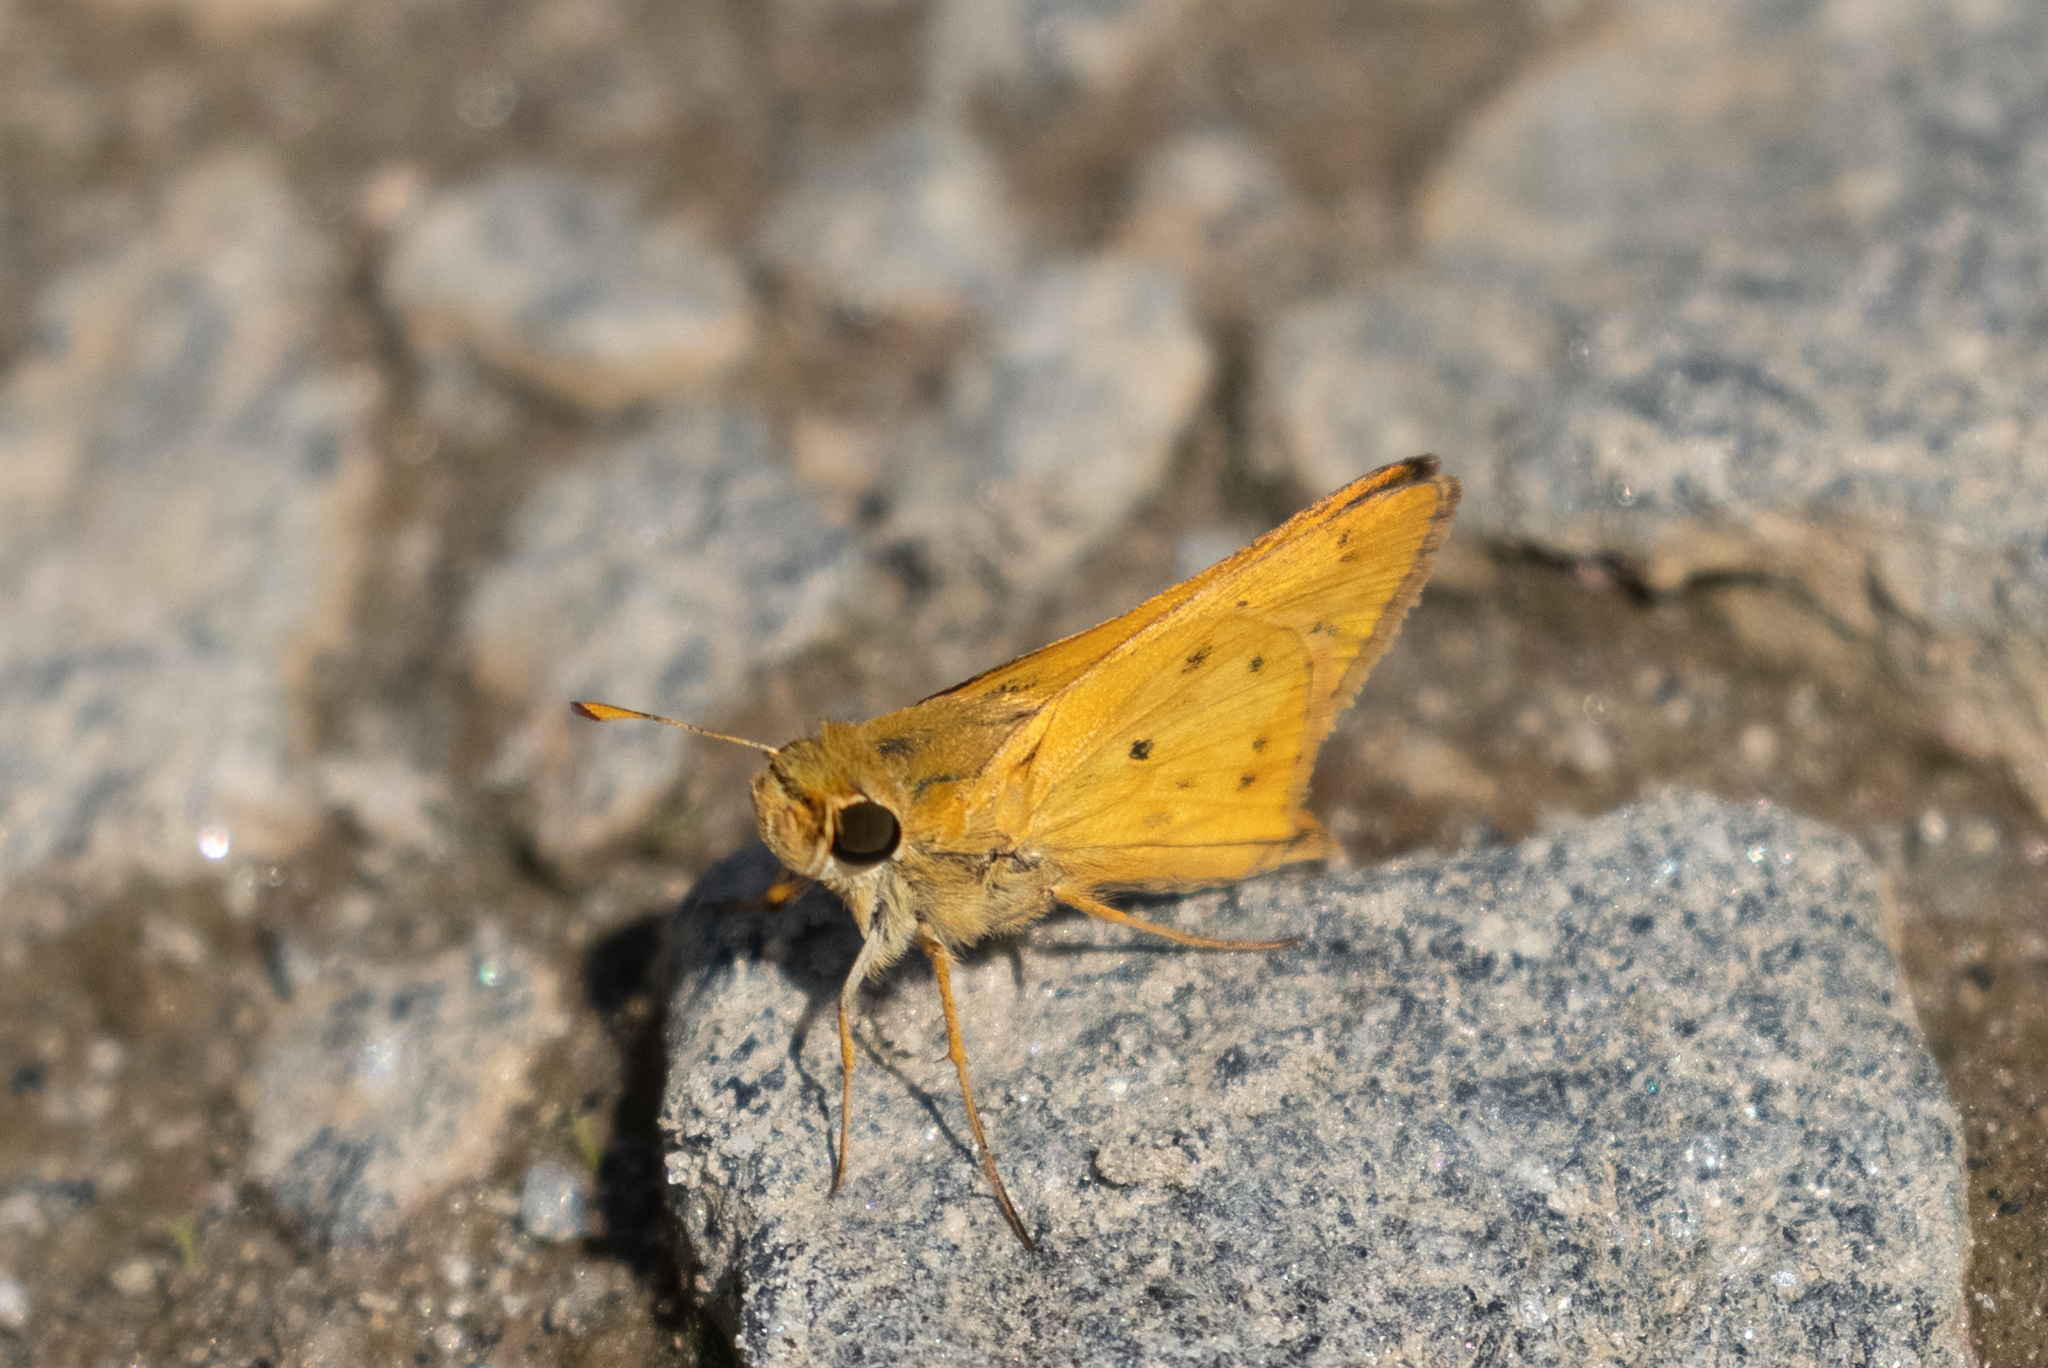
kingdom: Animalia
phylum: Arthropoda
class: Insecta
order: Lepidoptera
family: Hesperiidae
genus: Hylephila
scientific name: Hylephila phyleus
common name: Fiery skipper
